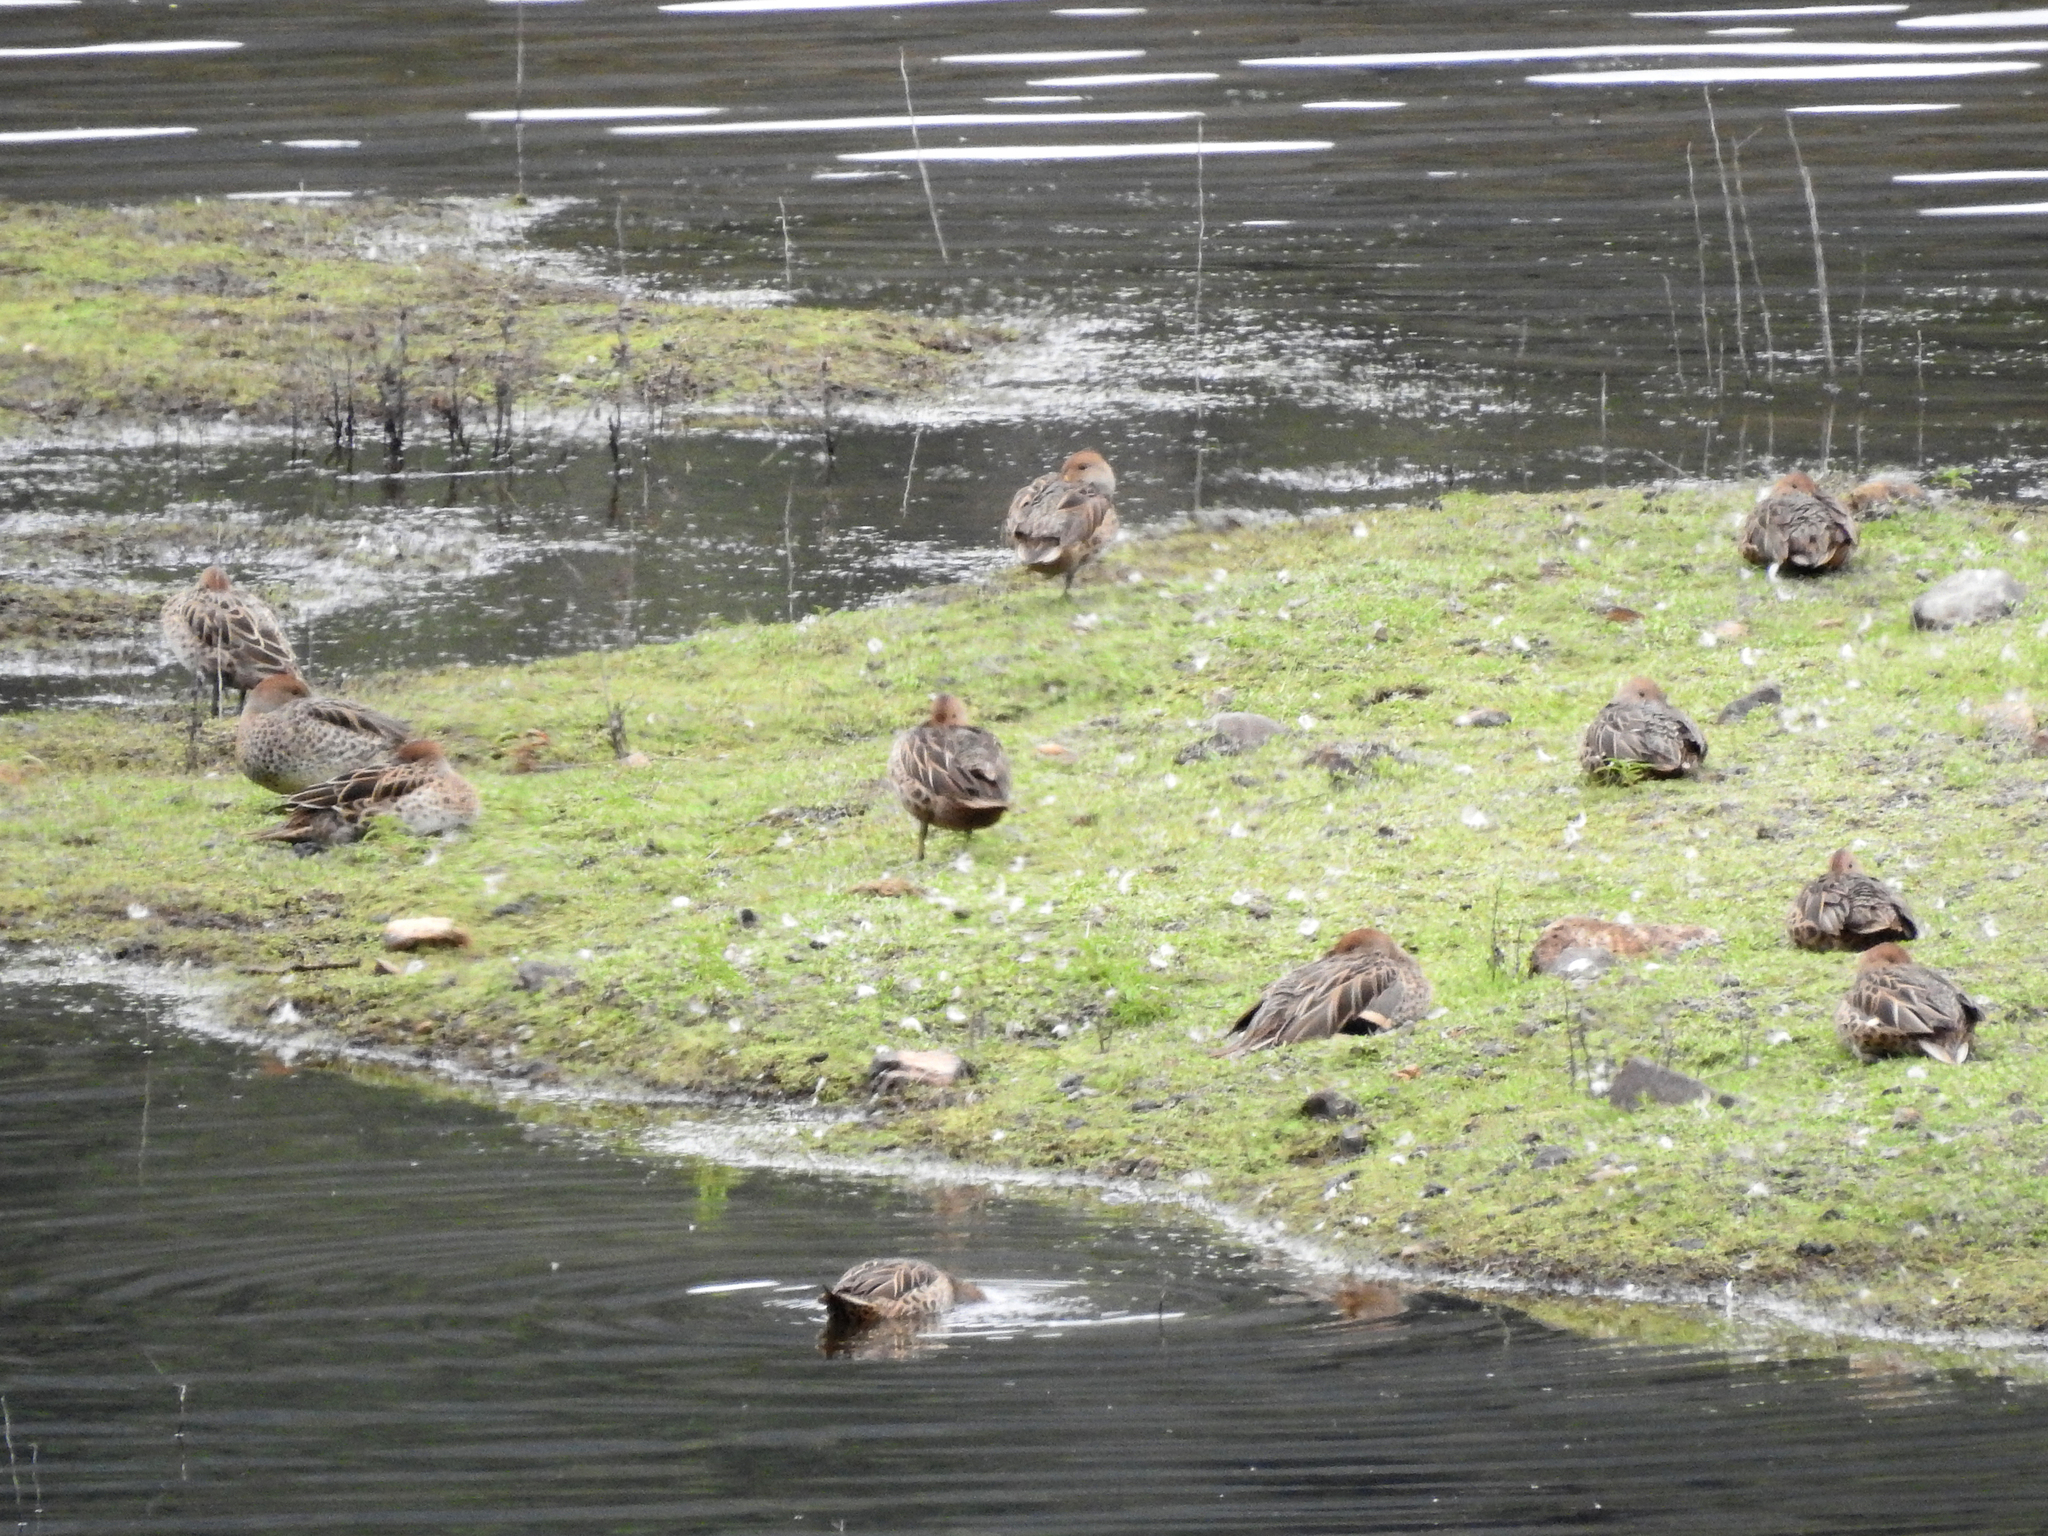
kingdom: Animalia
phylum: Chordata
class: Aves
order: Anseriformes
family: Anatidae
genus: Anas
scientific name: Anas flavirostris
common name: Yellow-billed teal
